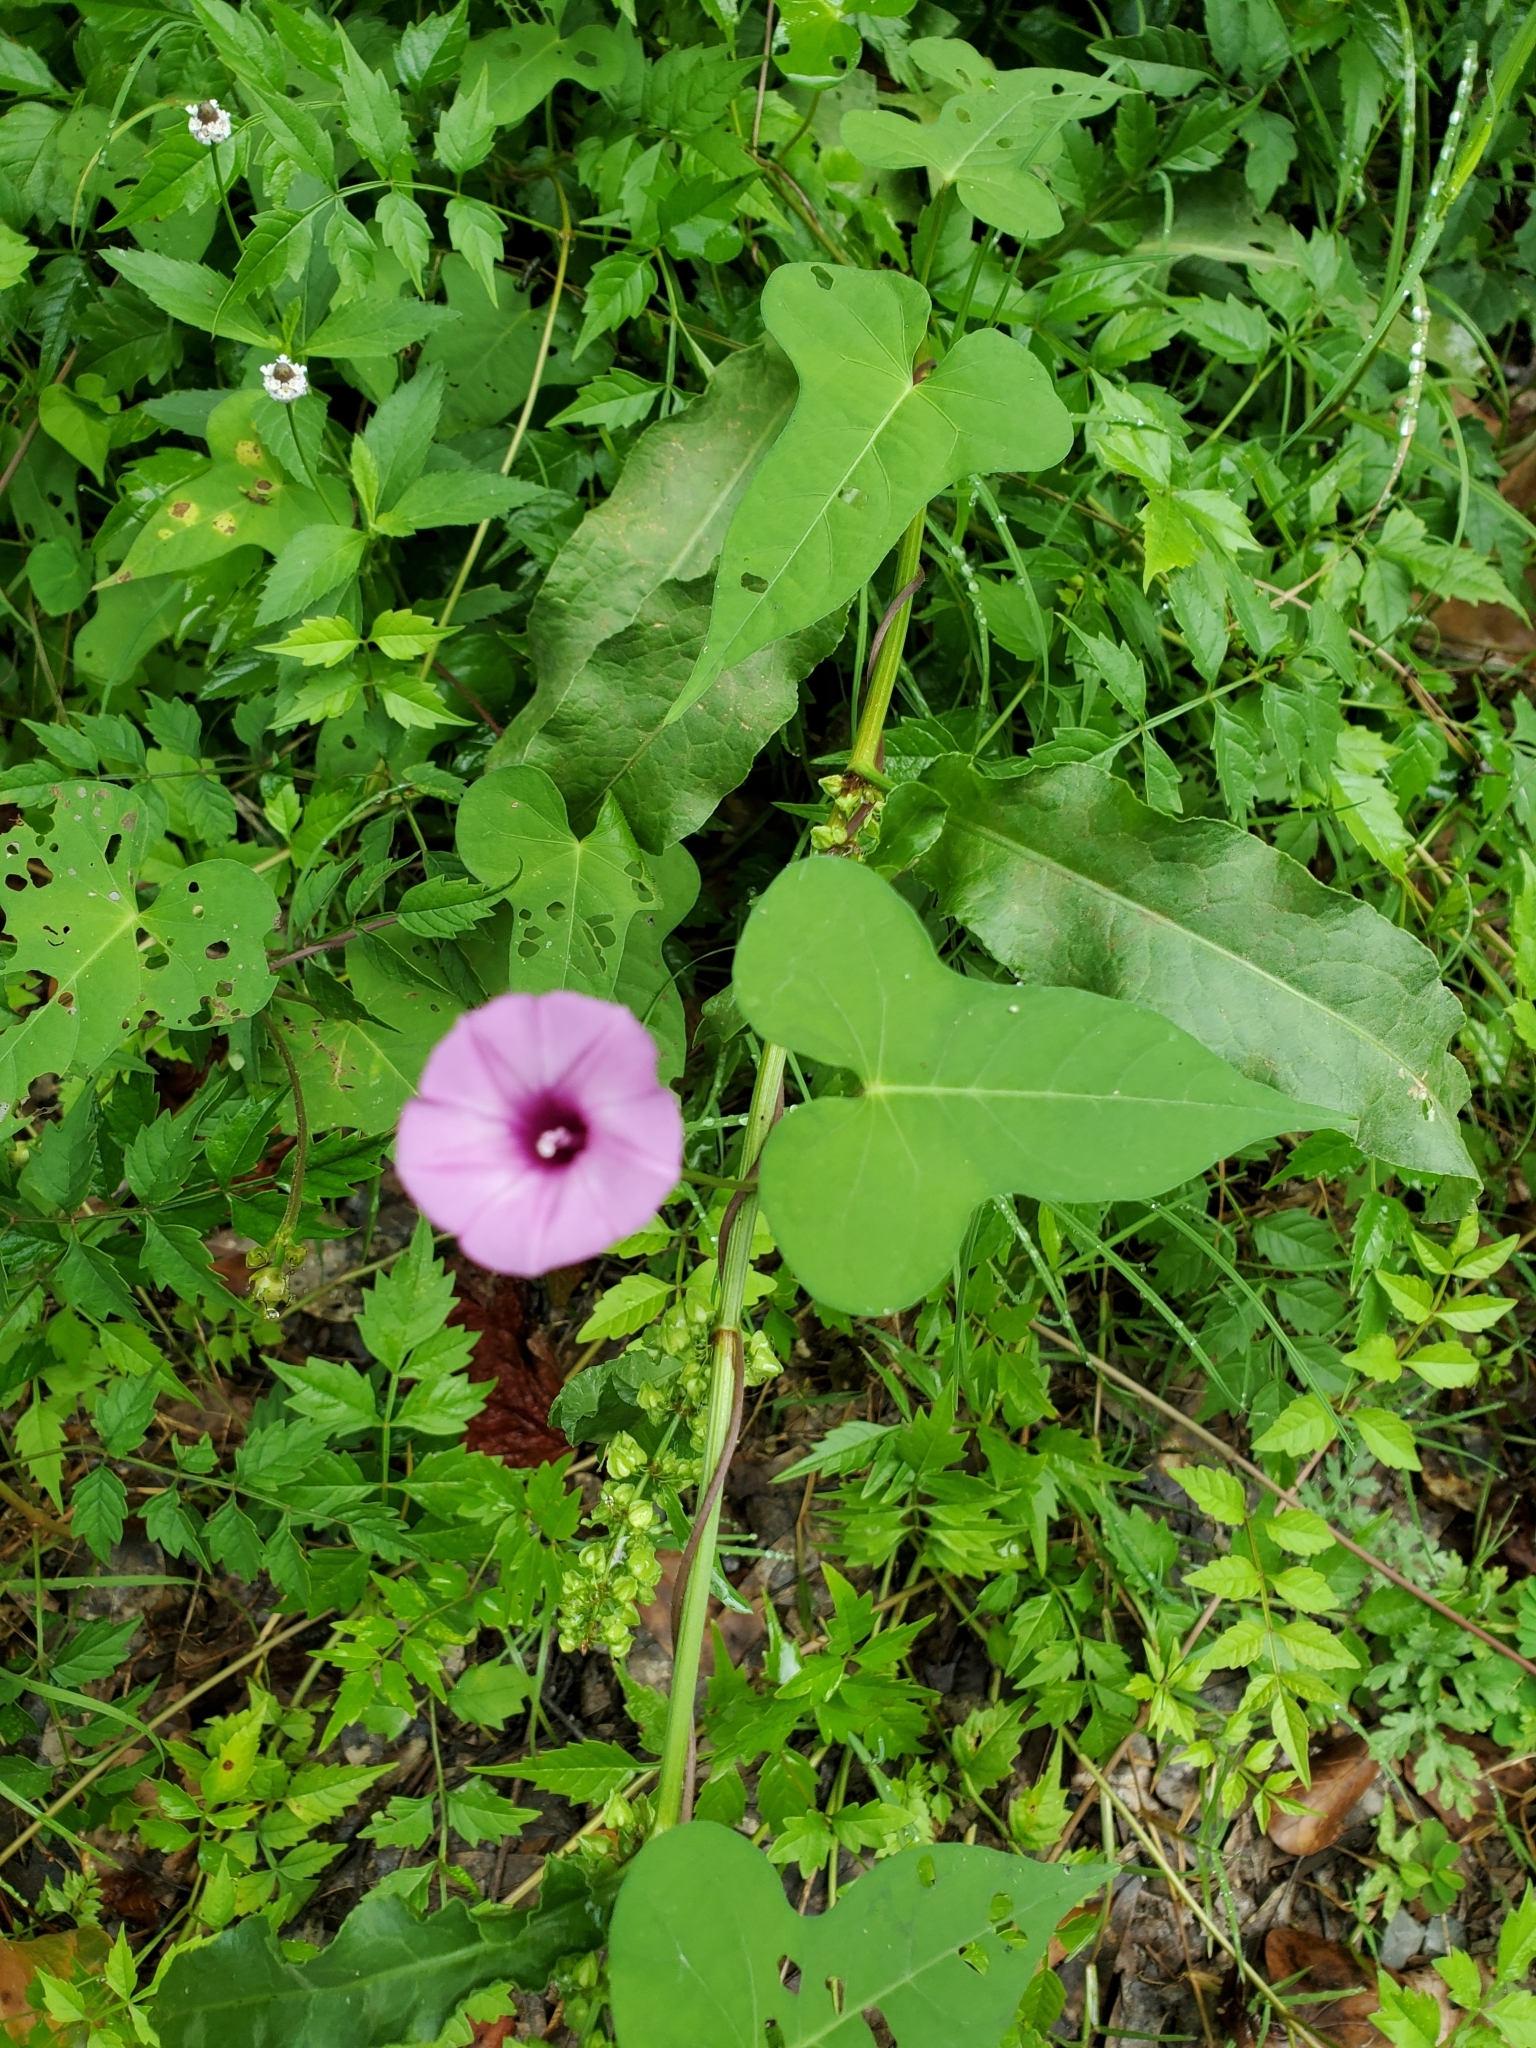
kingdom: Plantae
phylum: Tracheophyta
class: Magnoliopsida
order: Solanales
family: Convolvulaceae
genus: Ipomoea
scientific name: Ipomoea cordatotriloba
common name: Cotton morning glory
